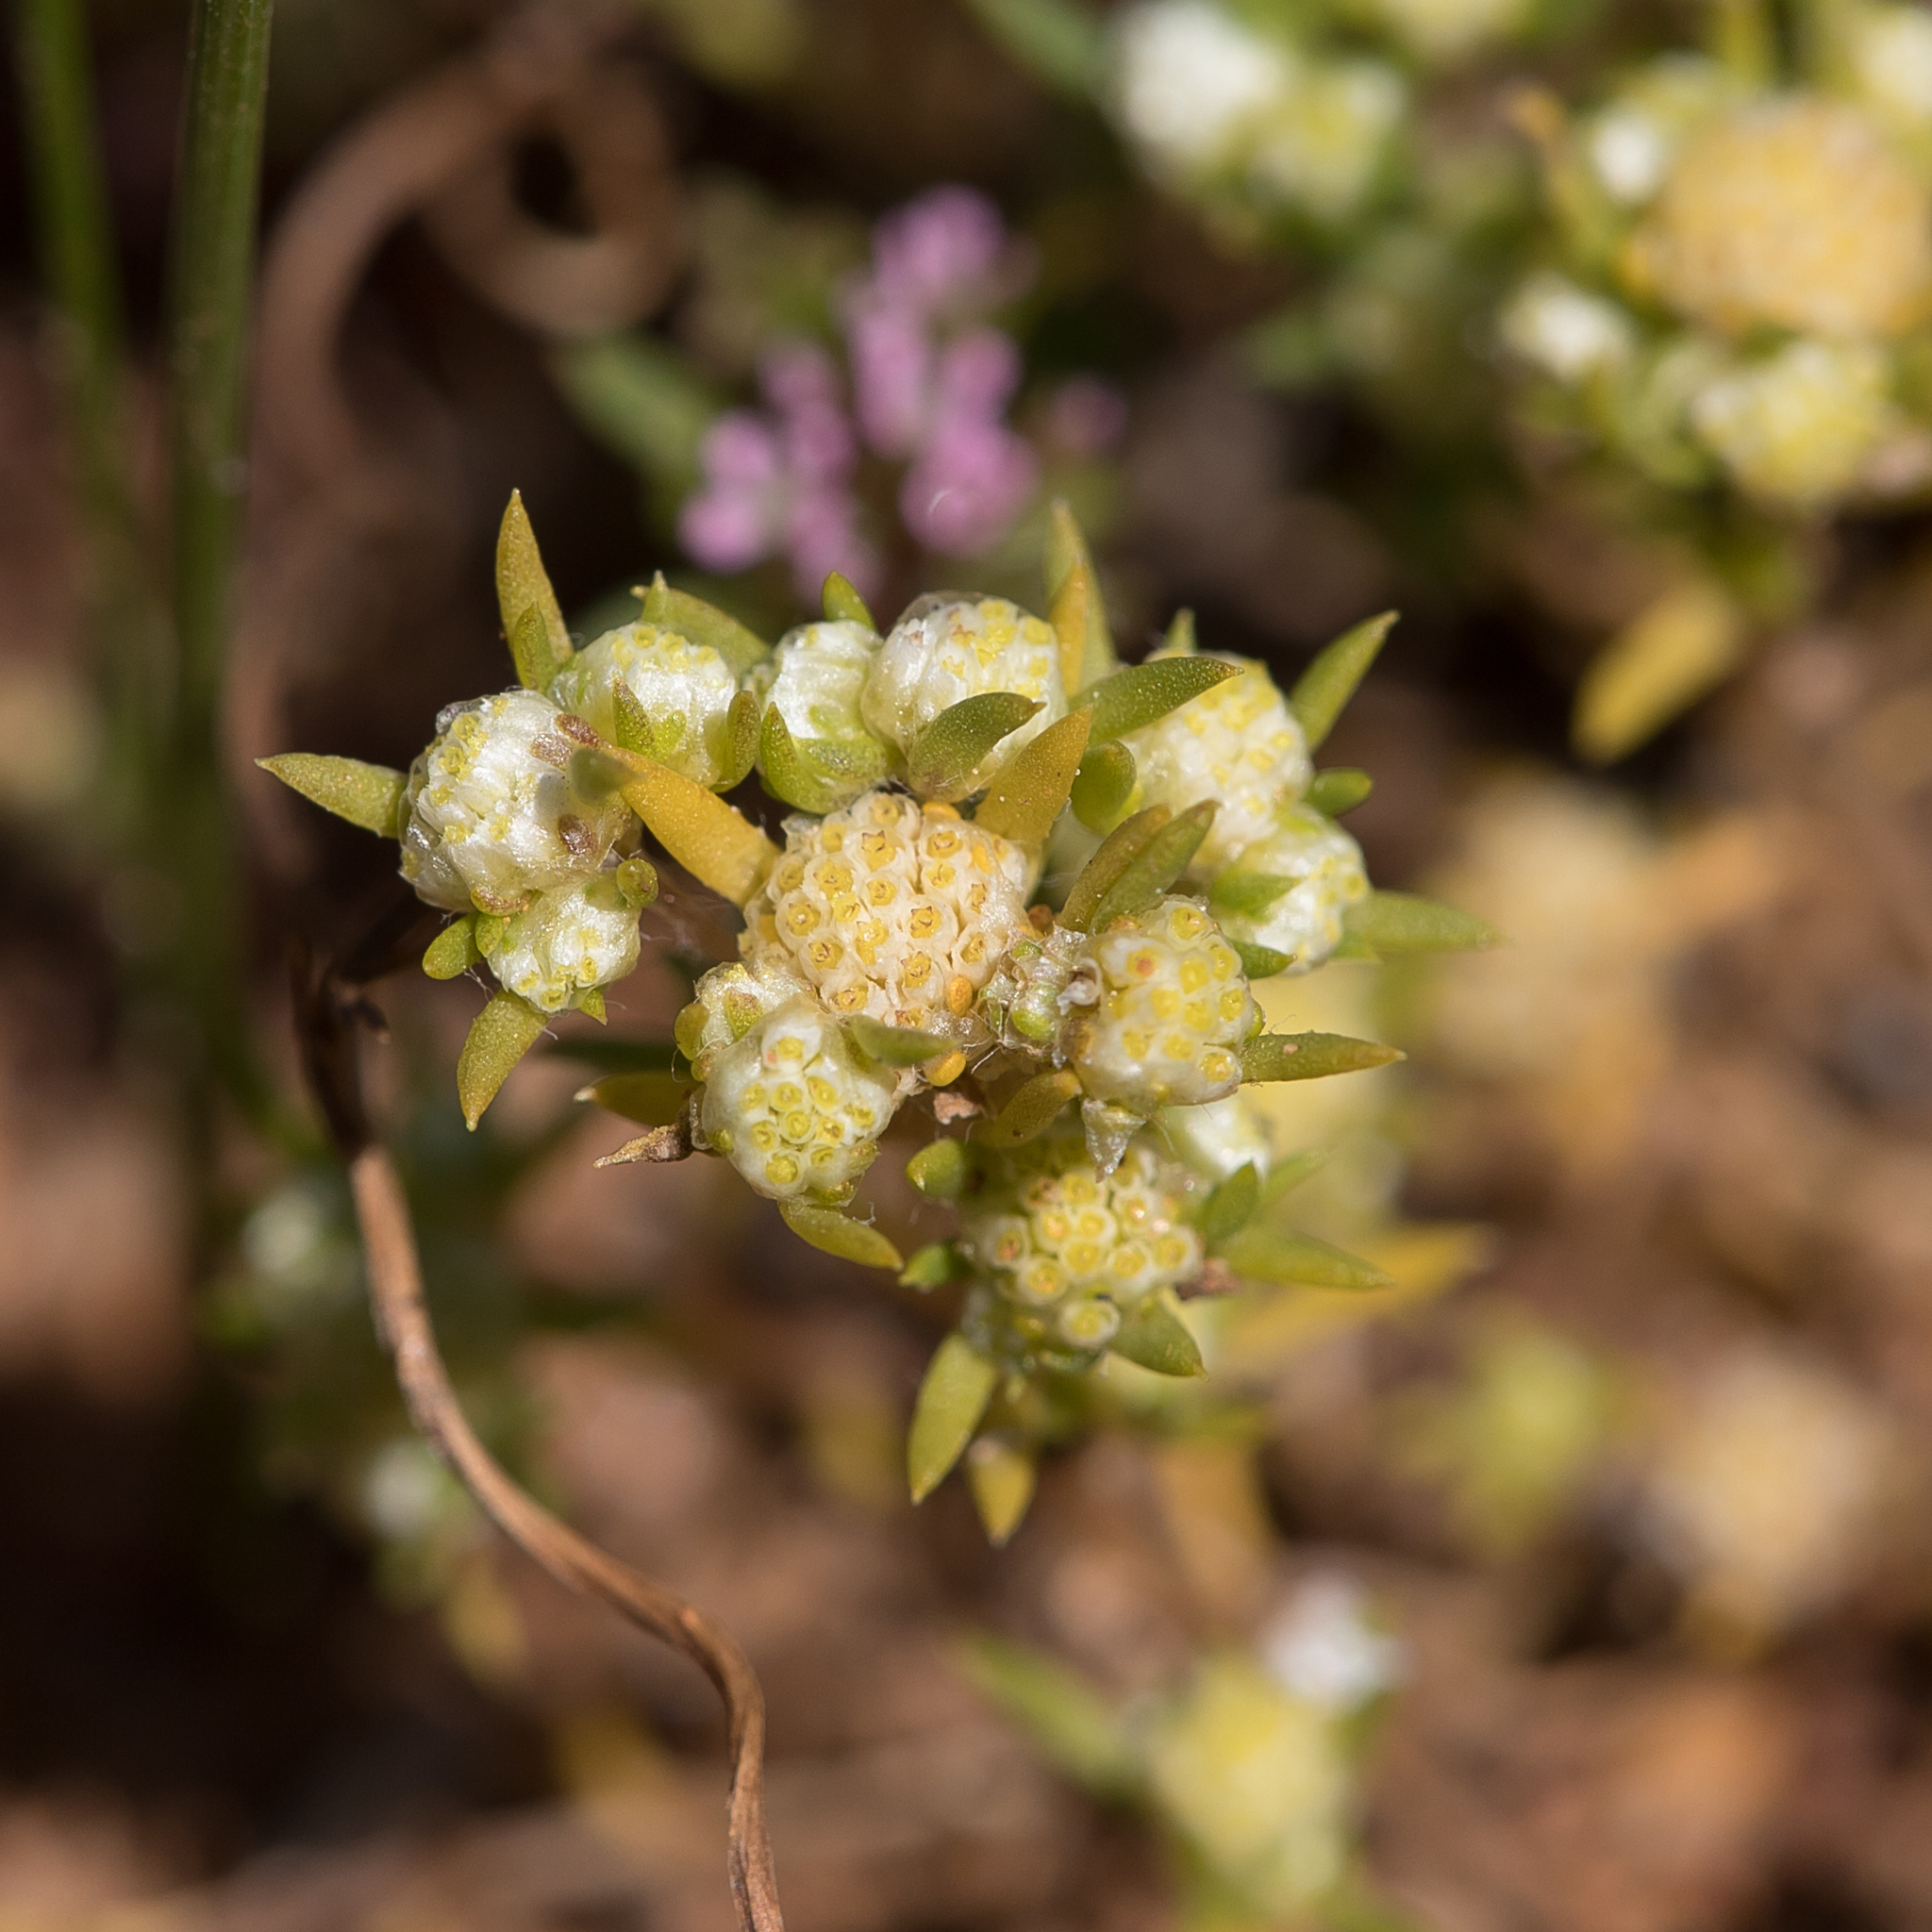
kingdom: Plantae
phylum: Tracheophyta
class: Magnoliopsida
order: Asterales
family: Asteraceae
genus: Siloxerus
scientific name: Siloxerus multiflorus
